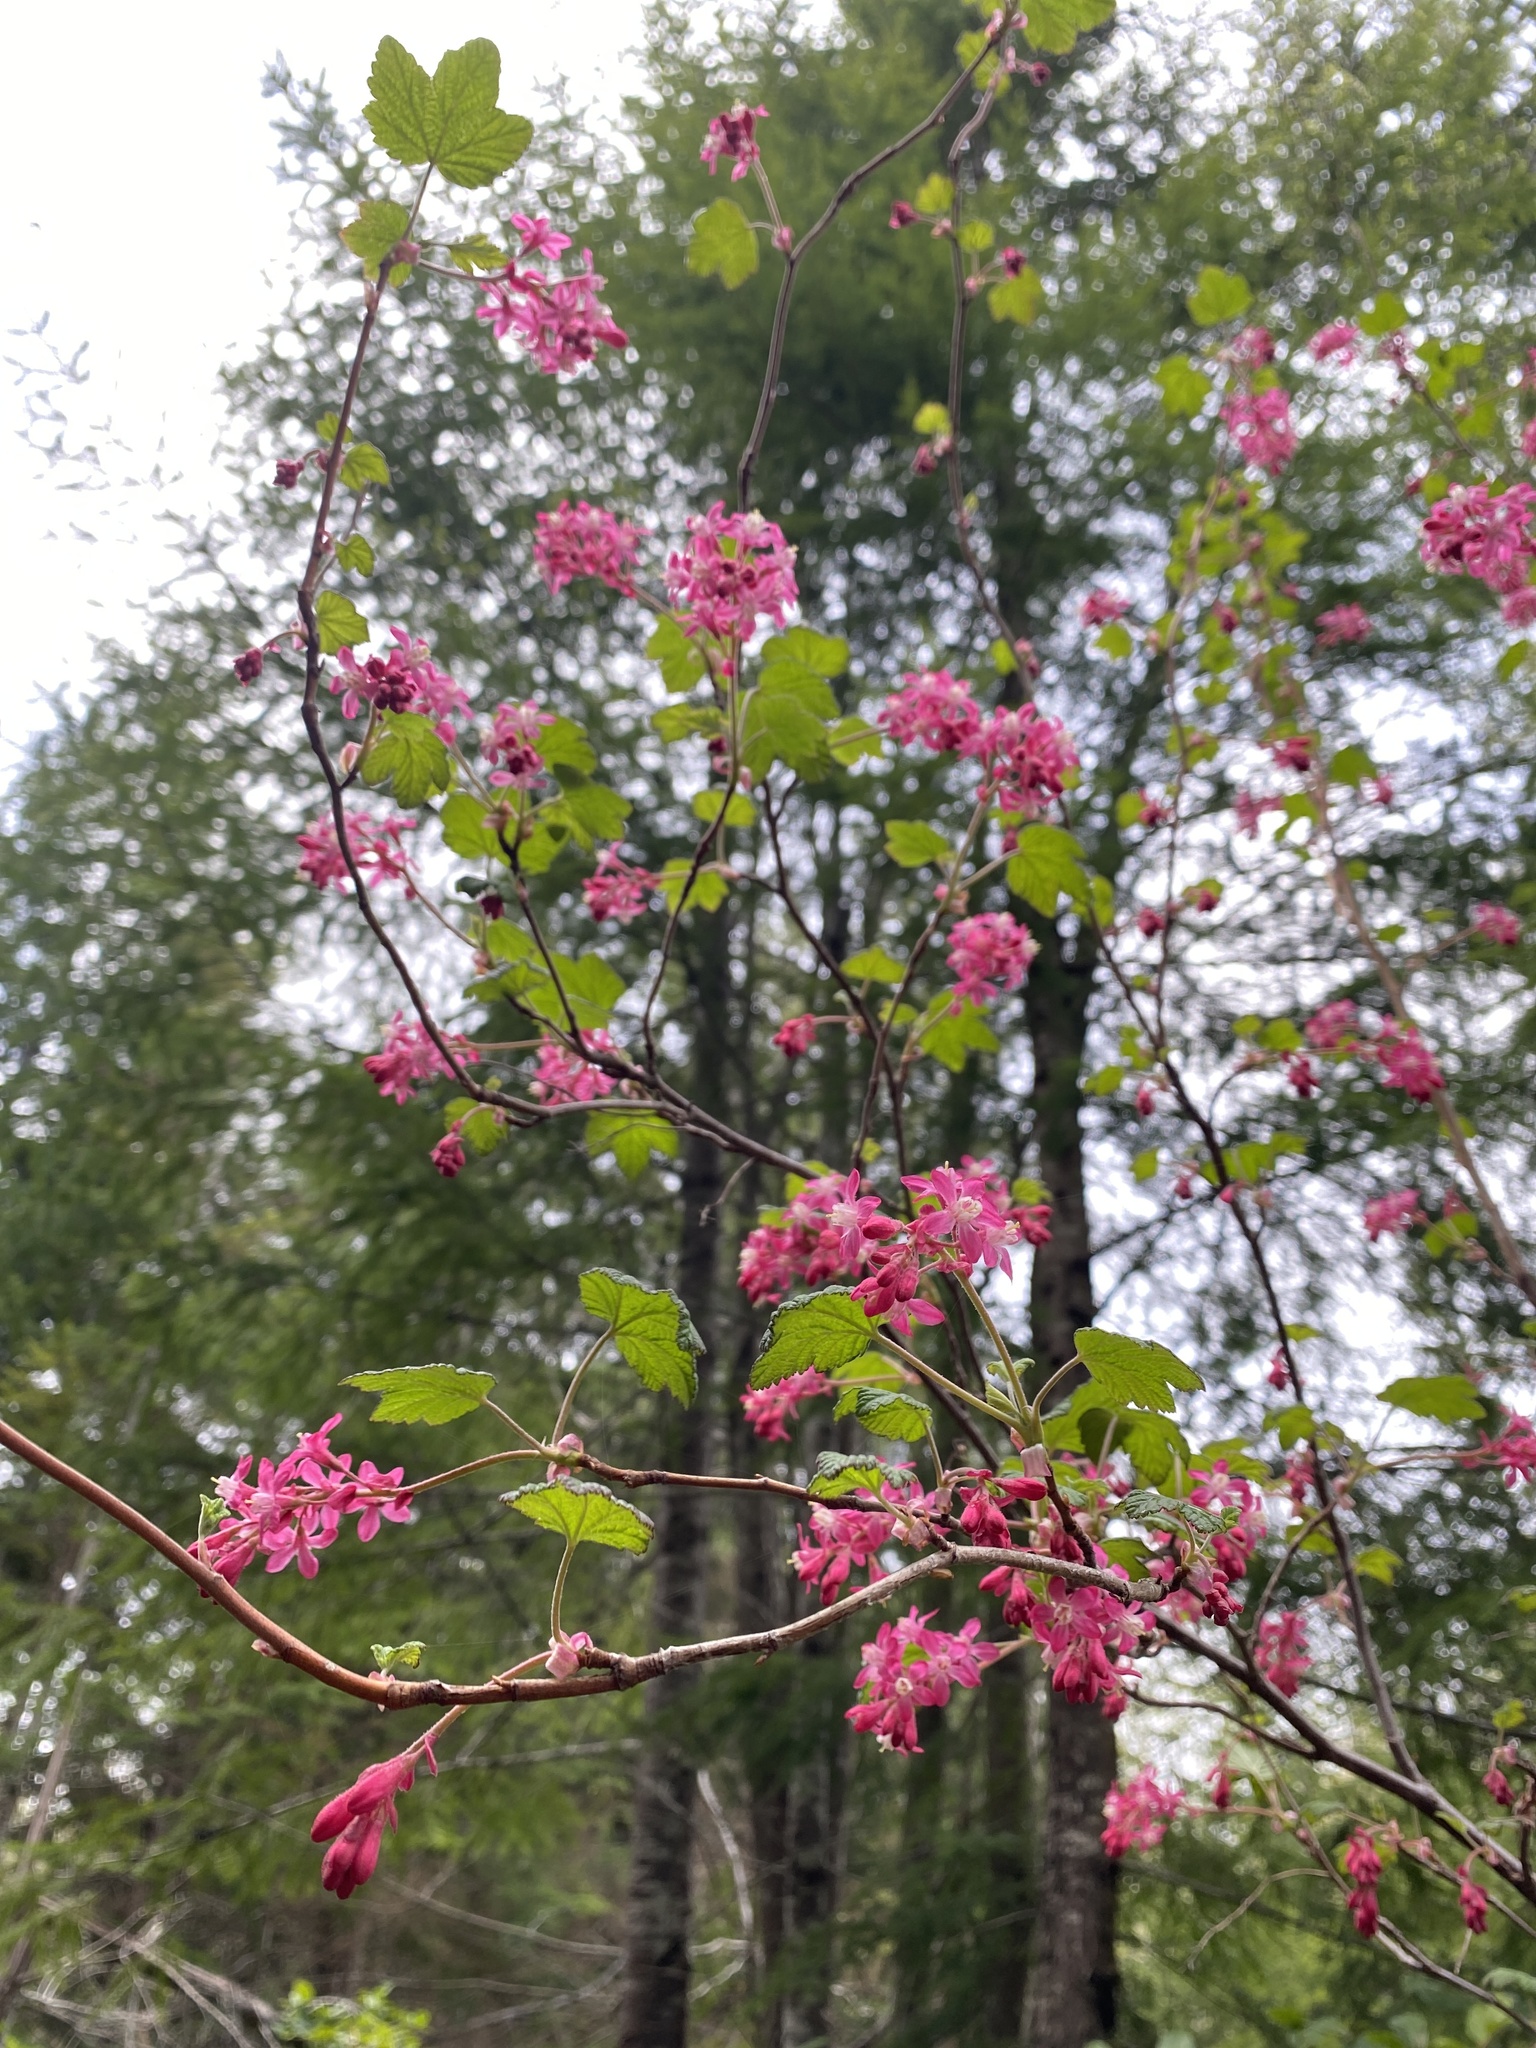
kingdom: Plantae
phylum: Tracheophyta
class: Magnoliopsida
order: Saxifragales
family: Grossulariaceae
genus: Ribes
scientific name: Ribes sanguineum
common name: Flowering currant
